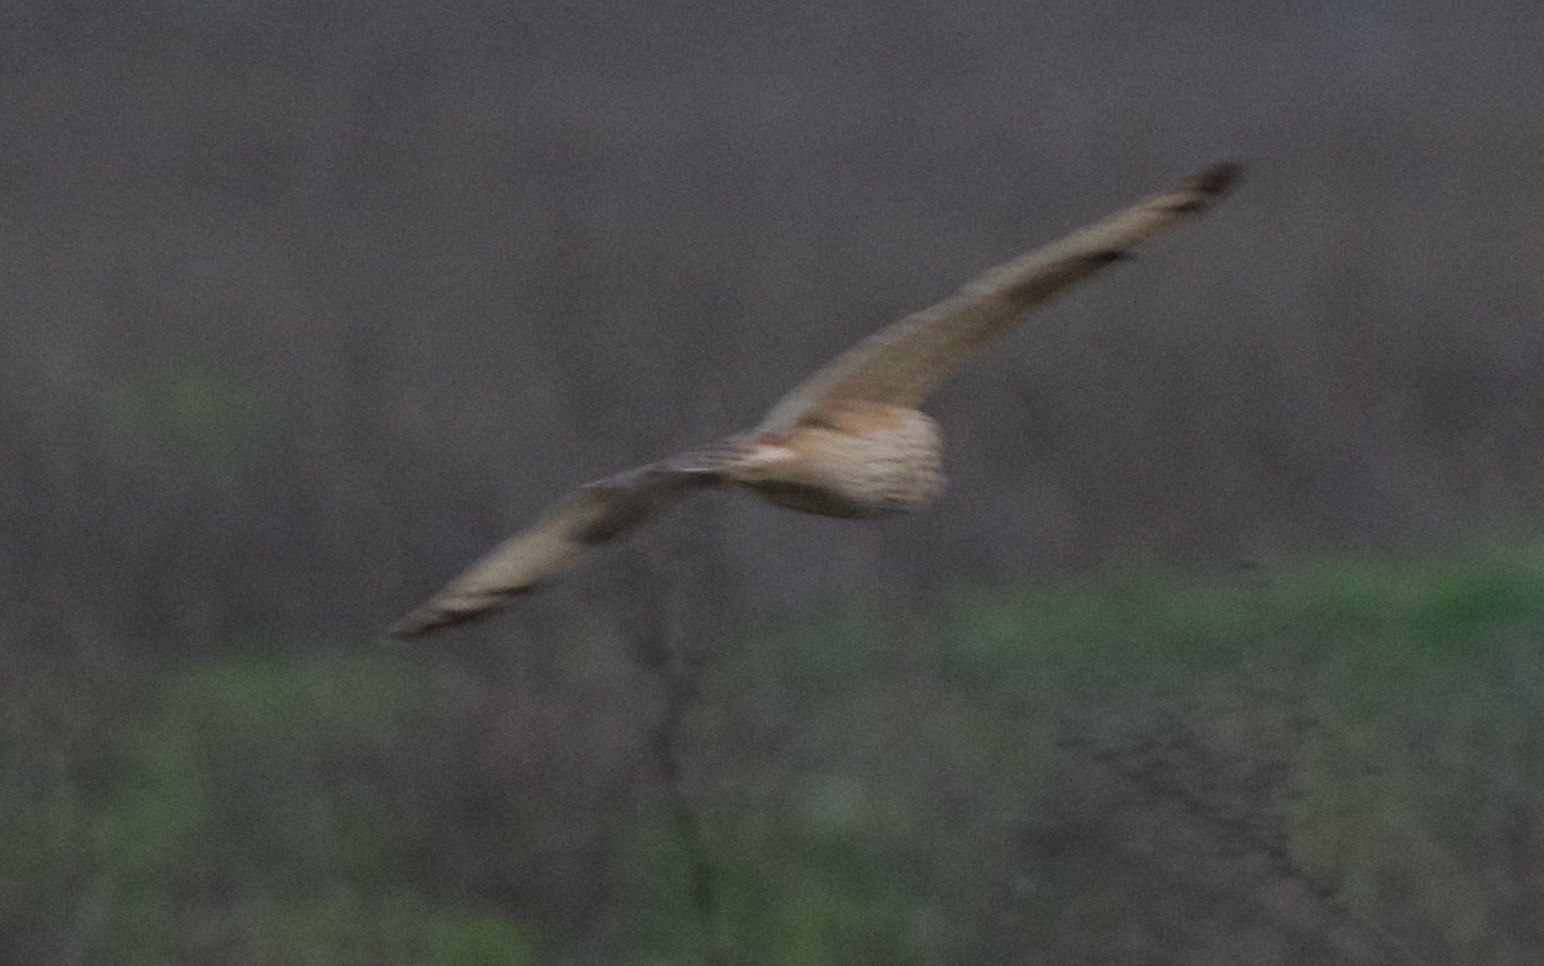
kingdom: Animalia
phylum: Chordata
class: Aves
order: Strigiformes
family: Strigidae
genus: Asio
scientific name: Asio flammeus
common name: Short-eared owl
